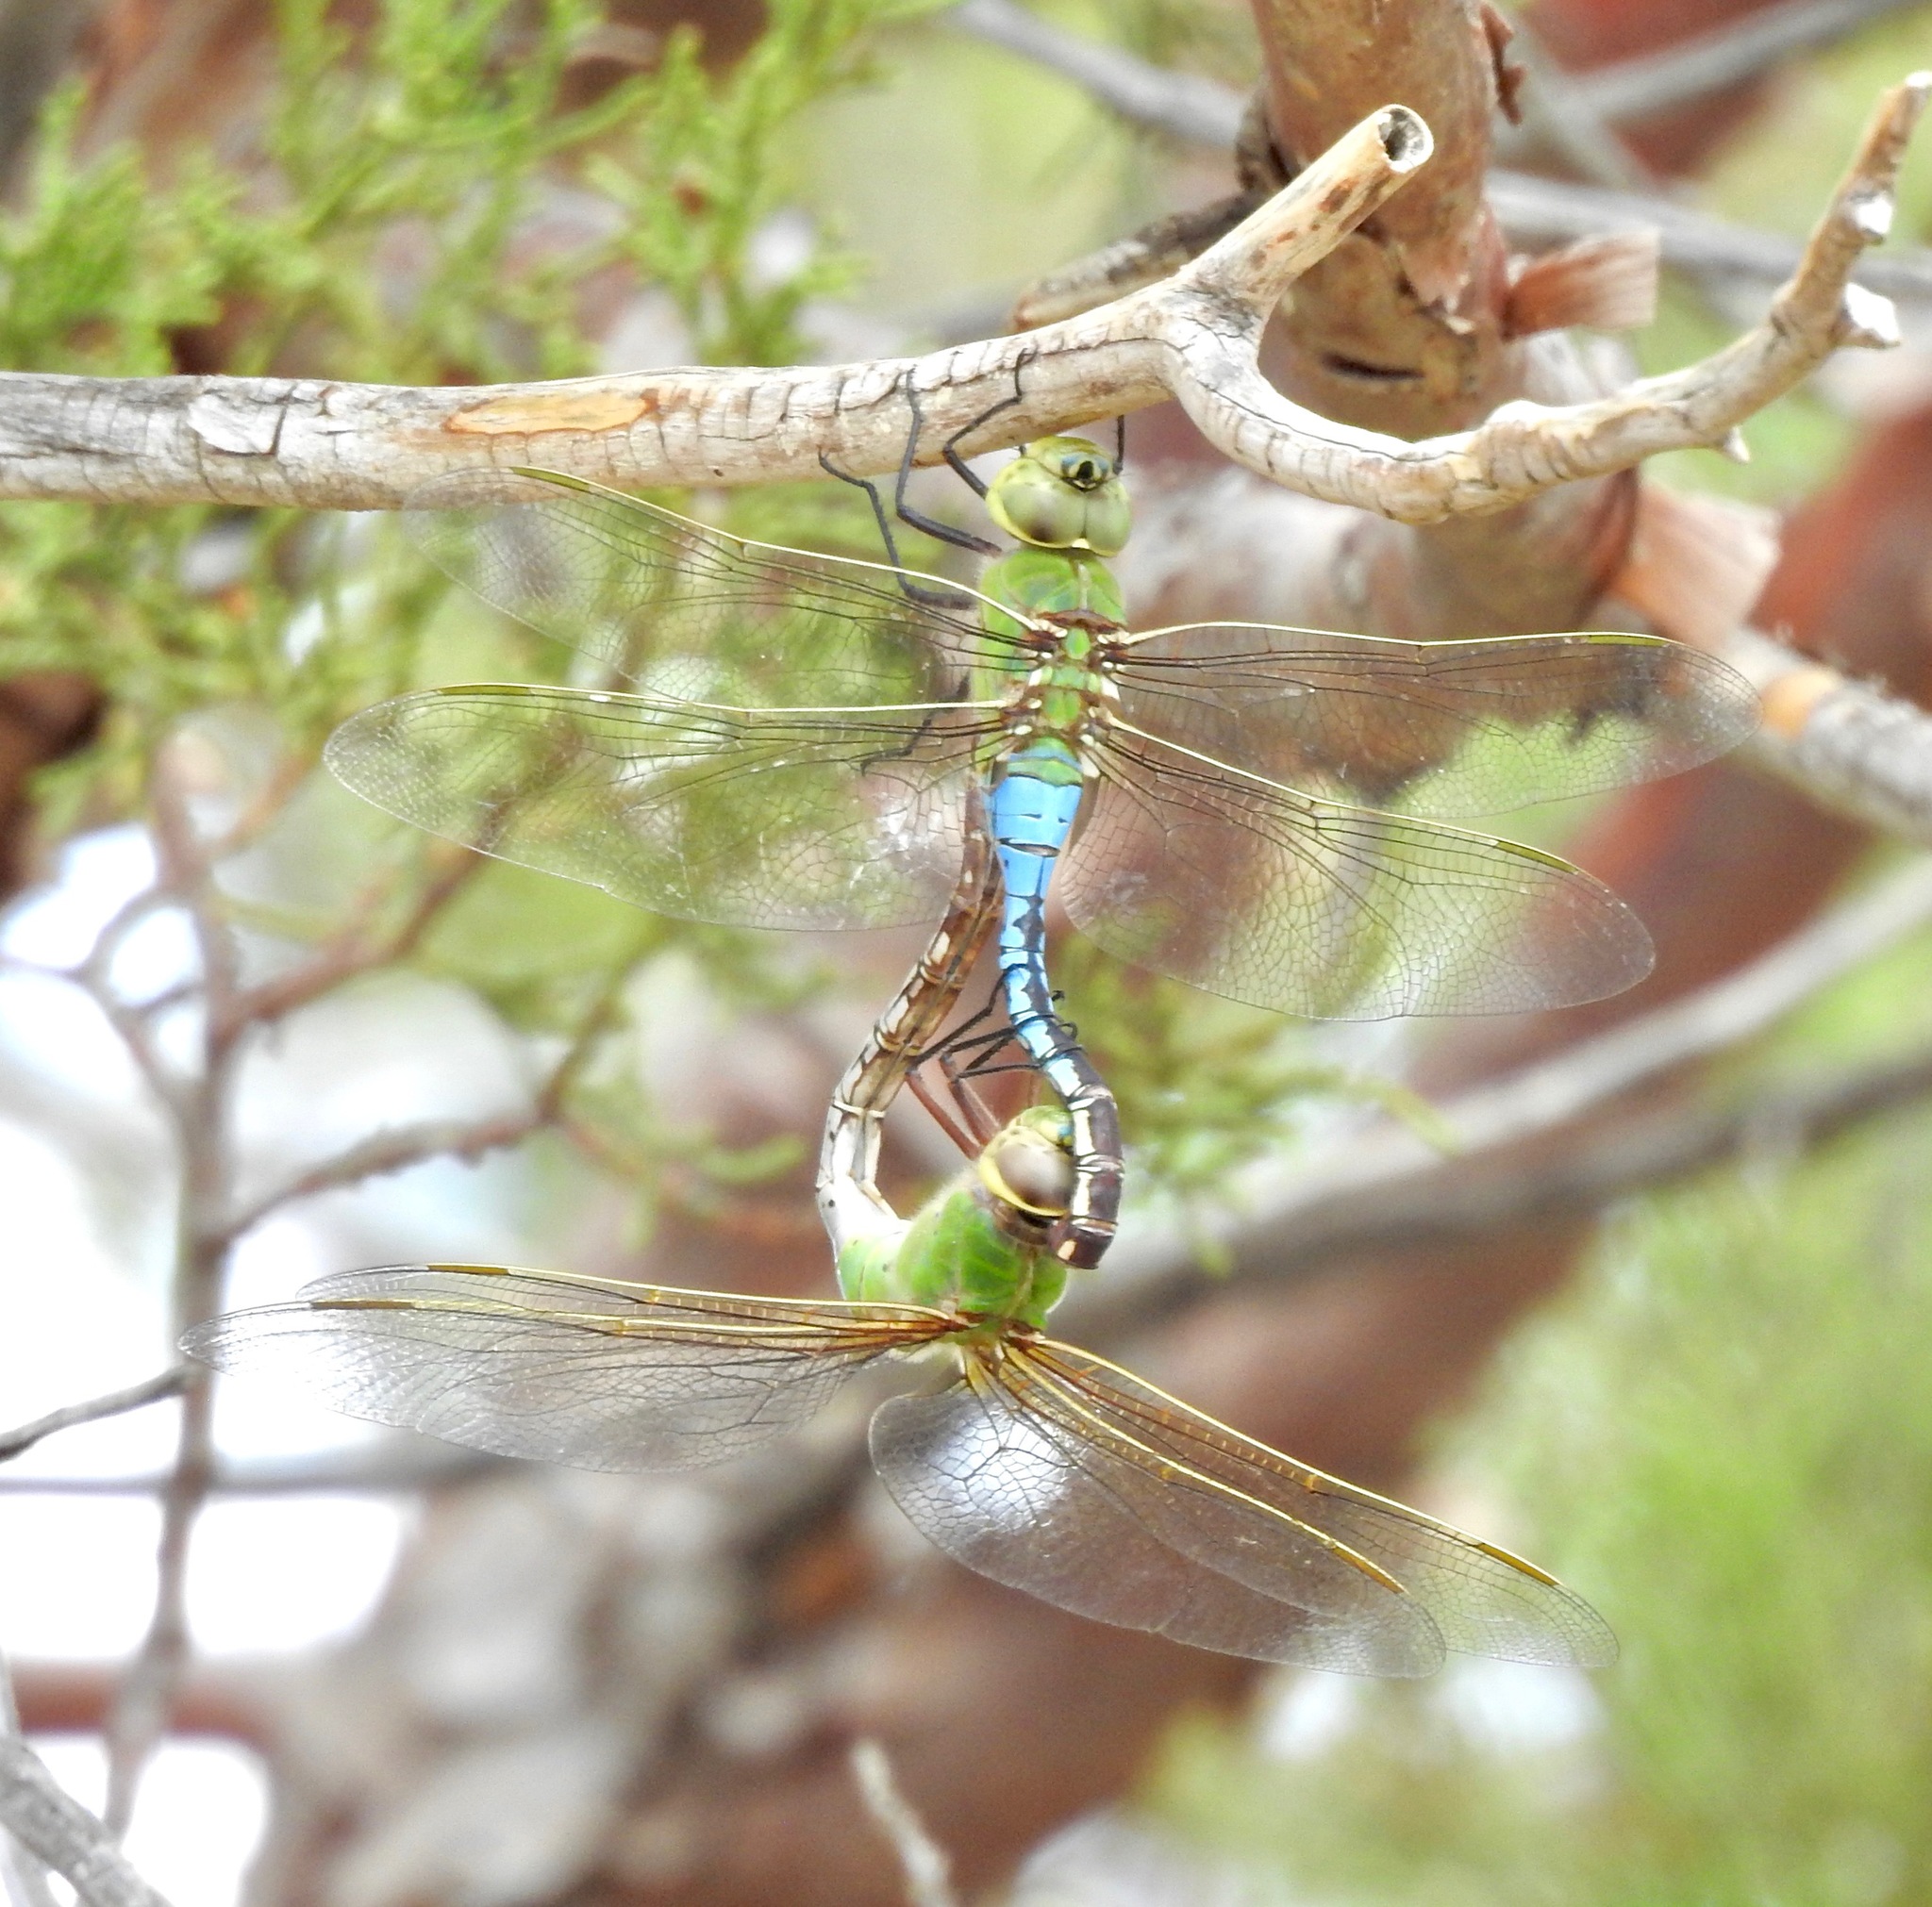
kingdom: Animalia
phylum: Arthropoda
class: Insecta
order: Odonata
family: Aeshnidae
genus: Anax
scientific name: Anax junius
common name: Common green darner
